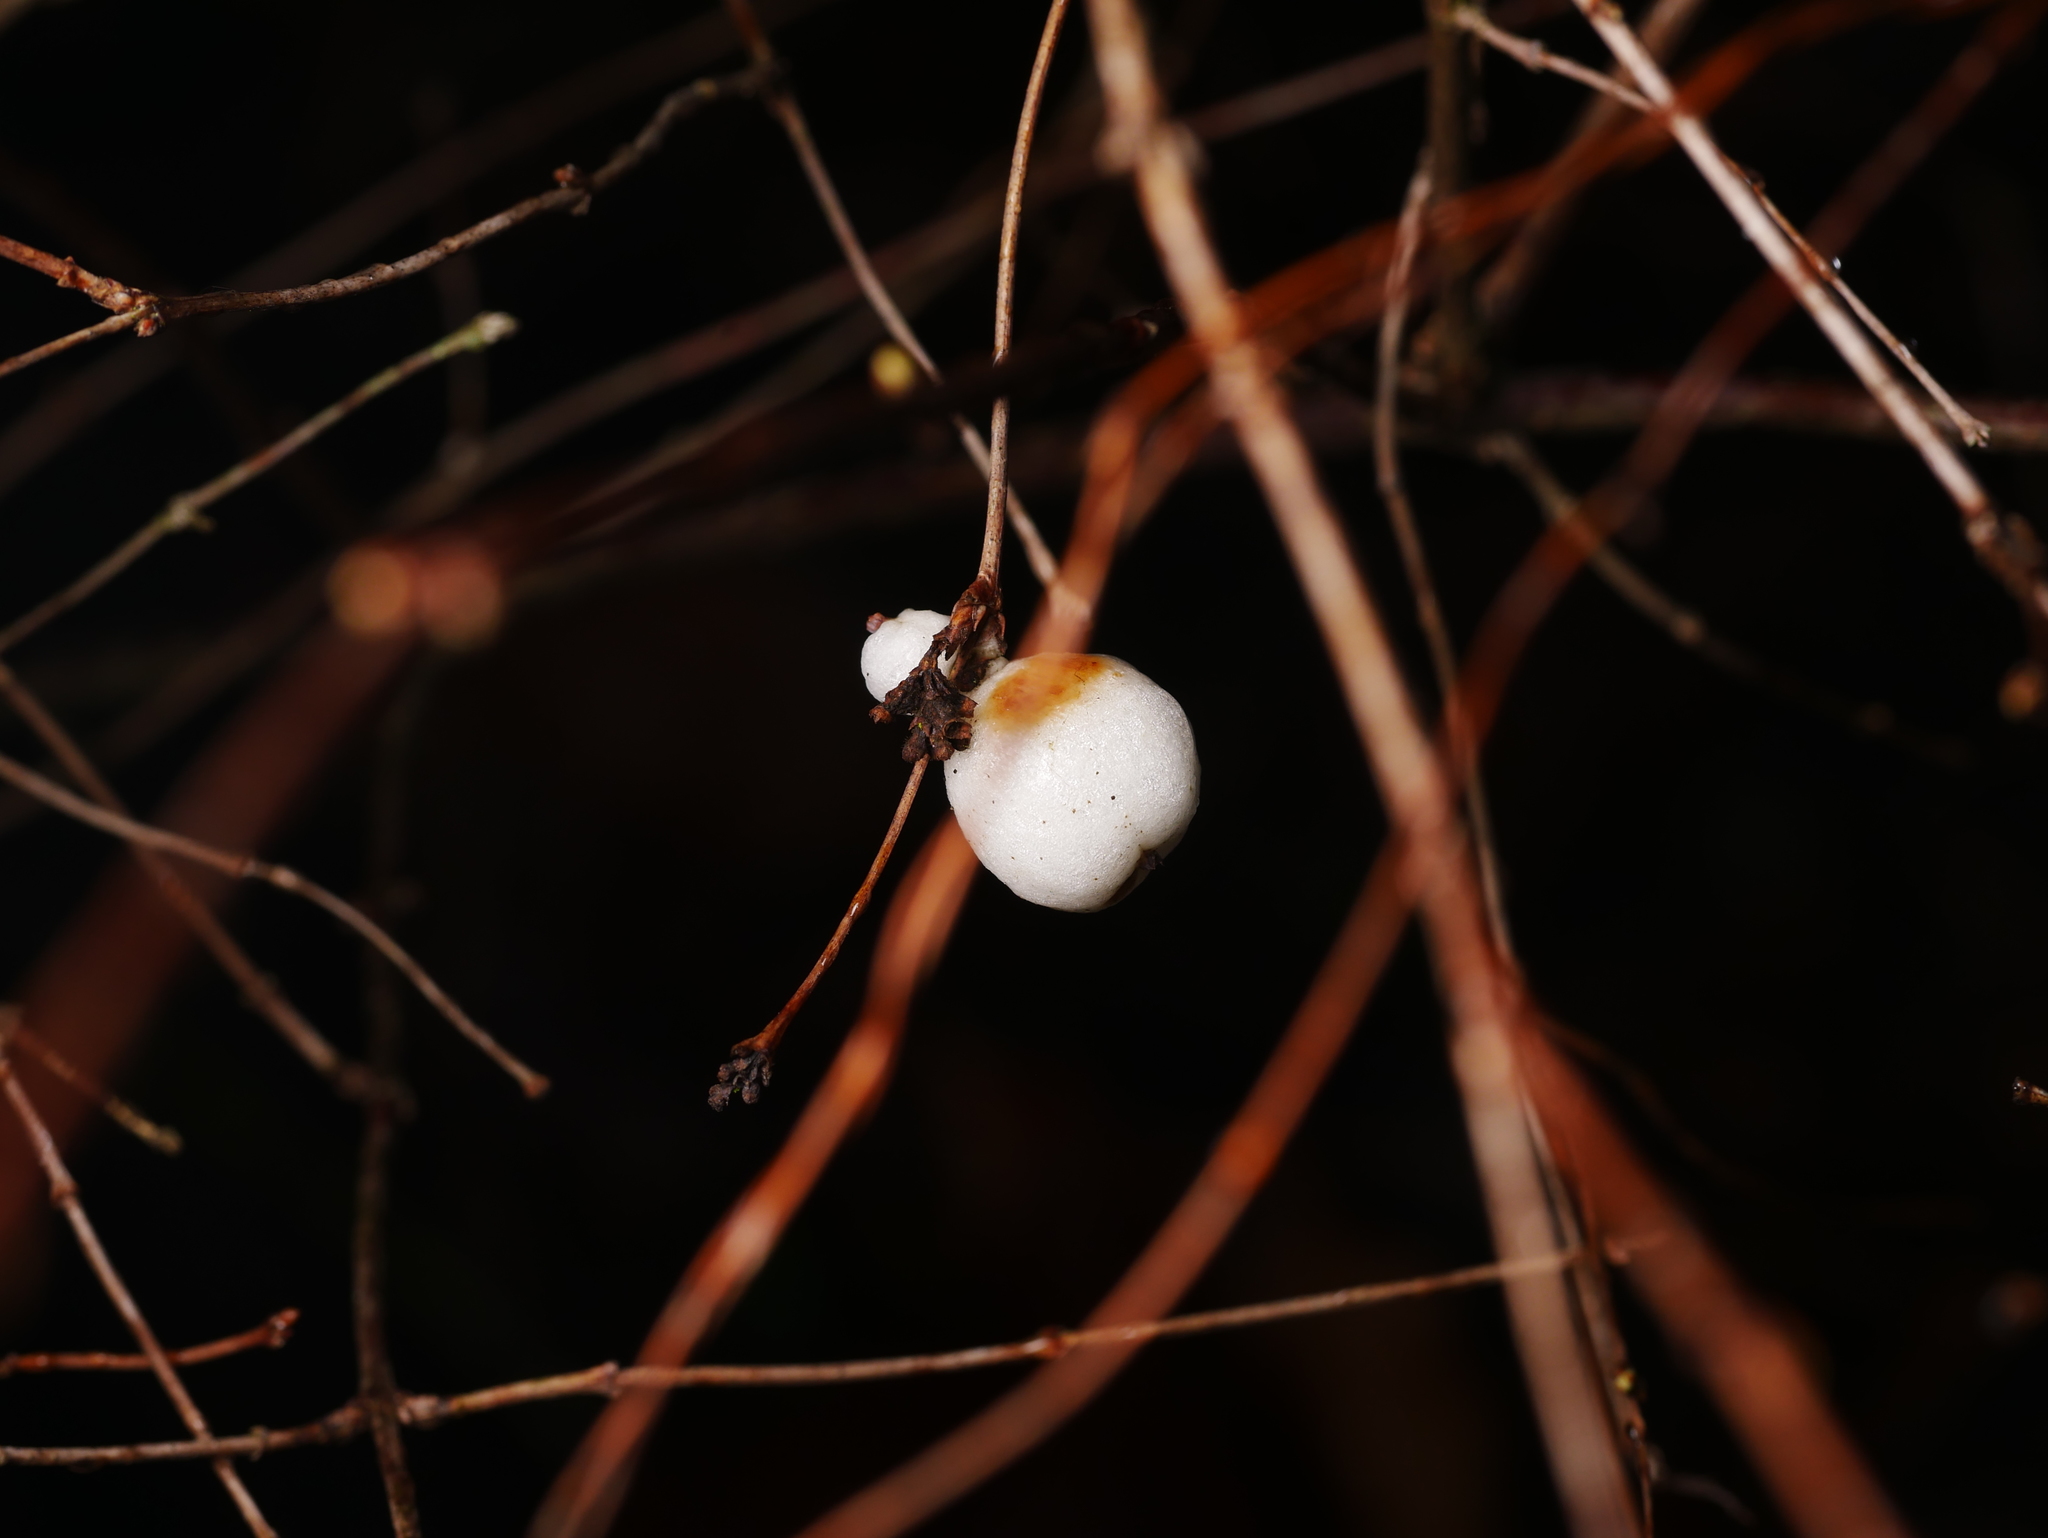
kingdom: Plantae
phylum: Tracheophyta
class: Magnoliopsida
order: Dipsacales
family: Caprifoliaceae
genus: Symphoricarpos
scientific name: Symphoricarpos albus
